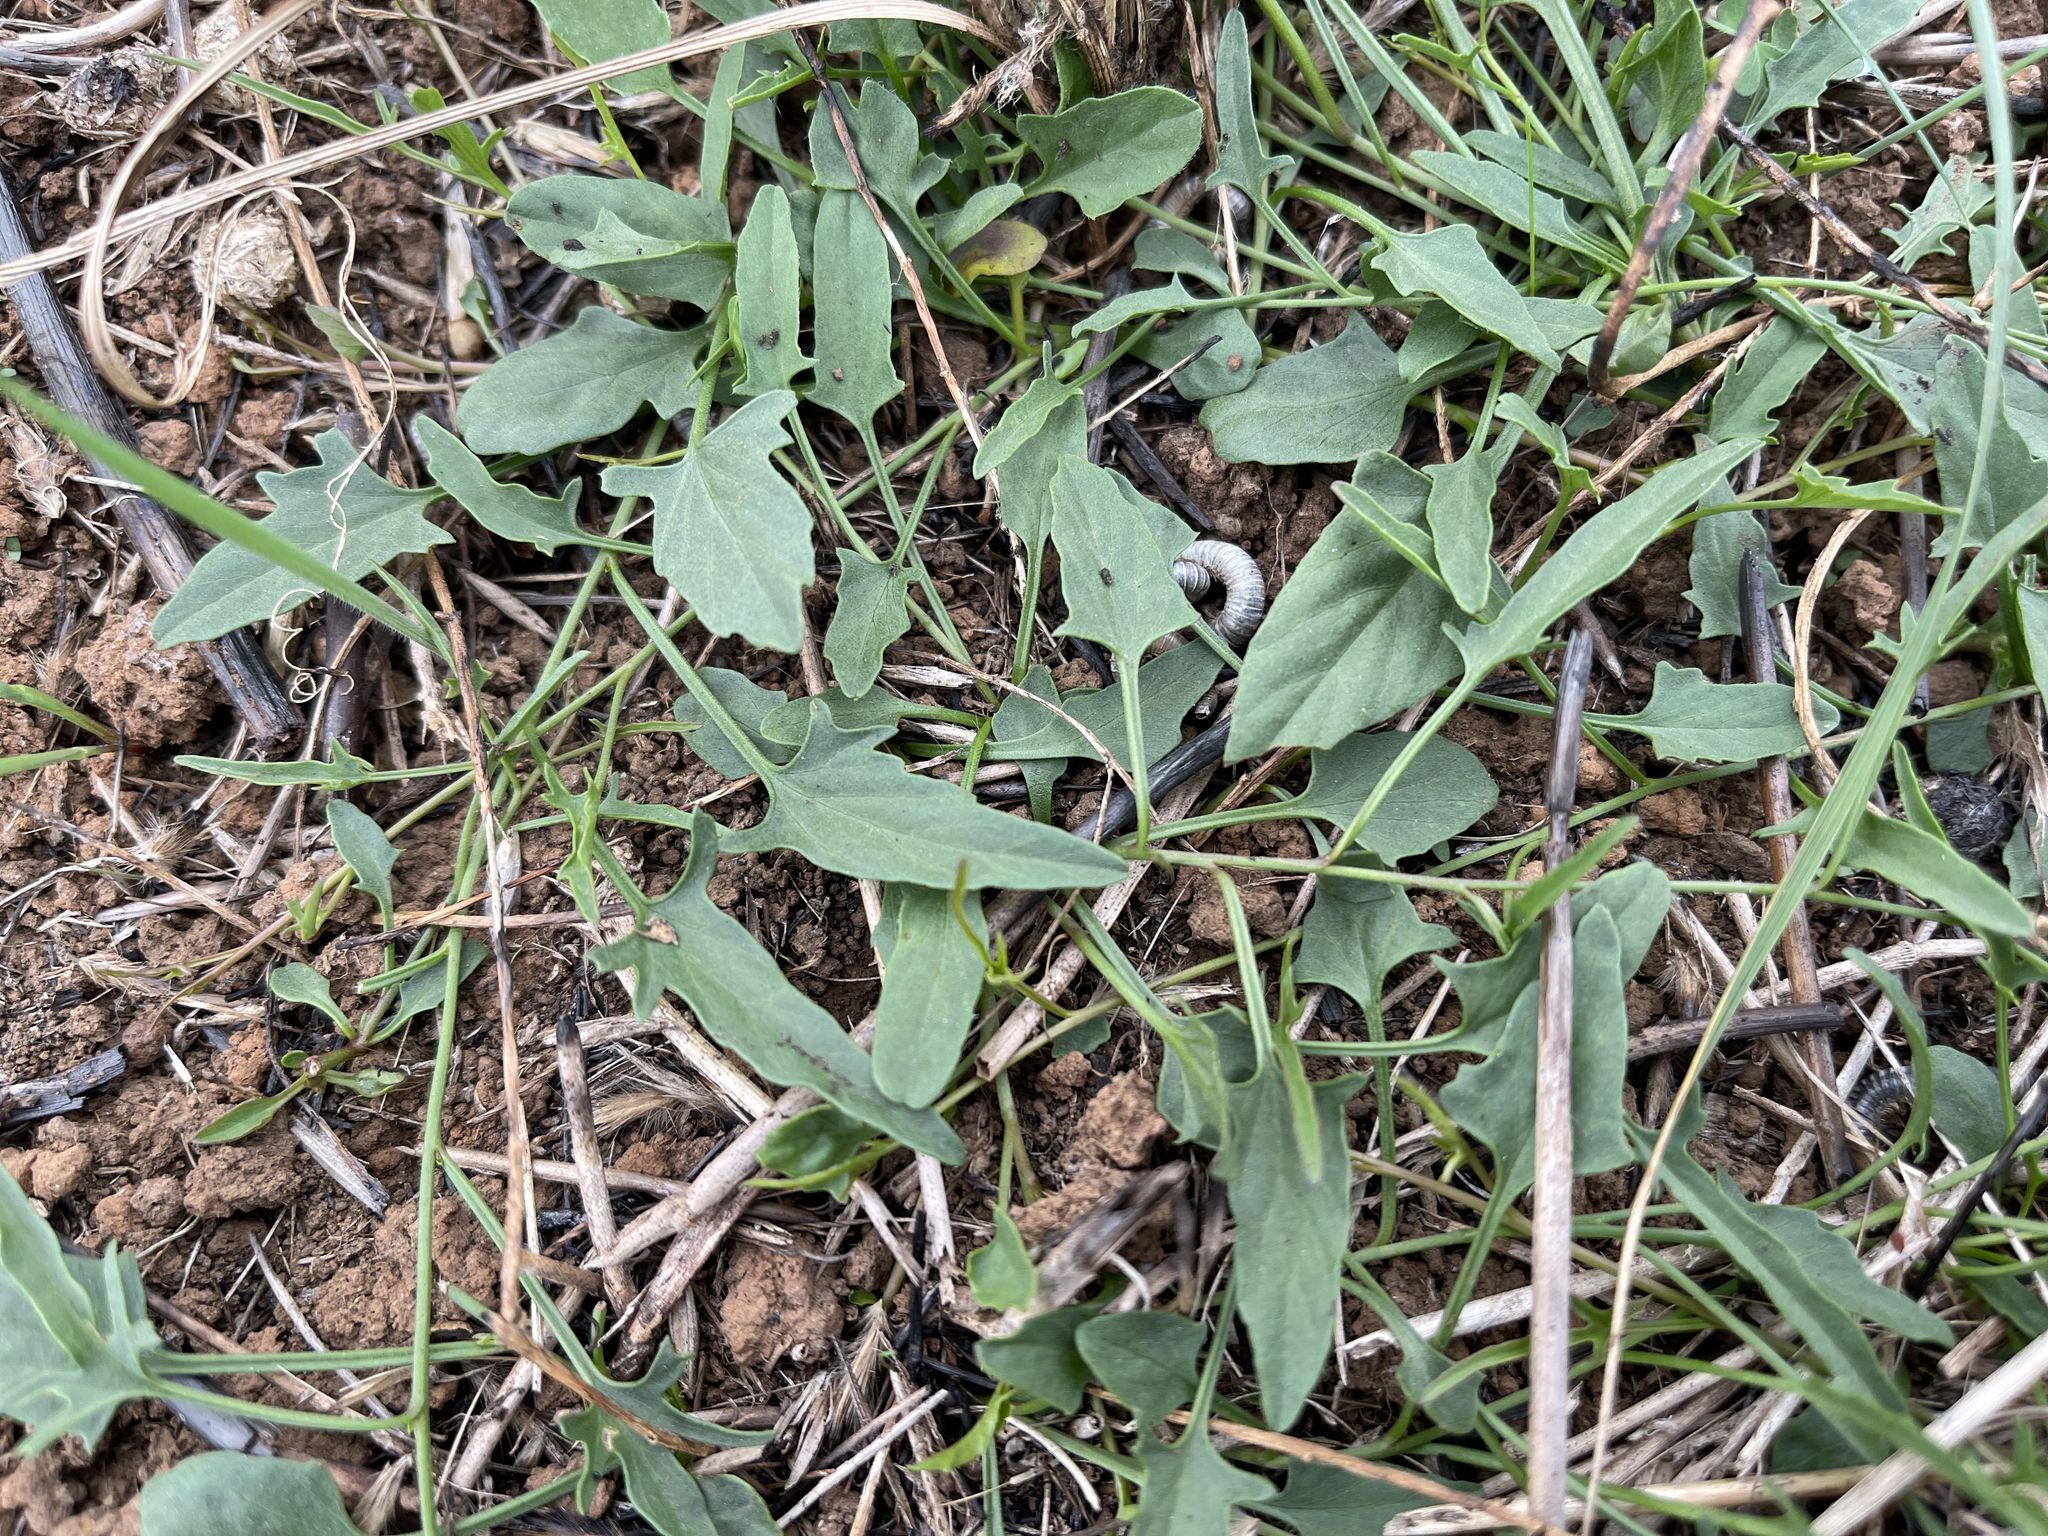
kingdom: Plantae
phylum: Tracheophyta
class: Magnoliopsida
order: Solanales
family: Convolvulaceae
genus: Convolvulus
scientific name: Convolvulus angustissimus
